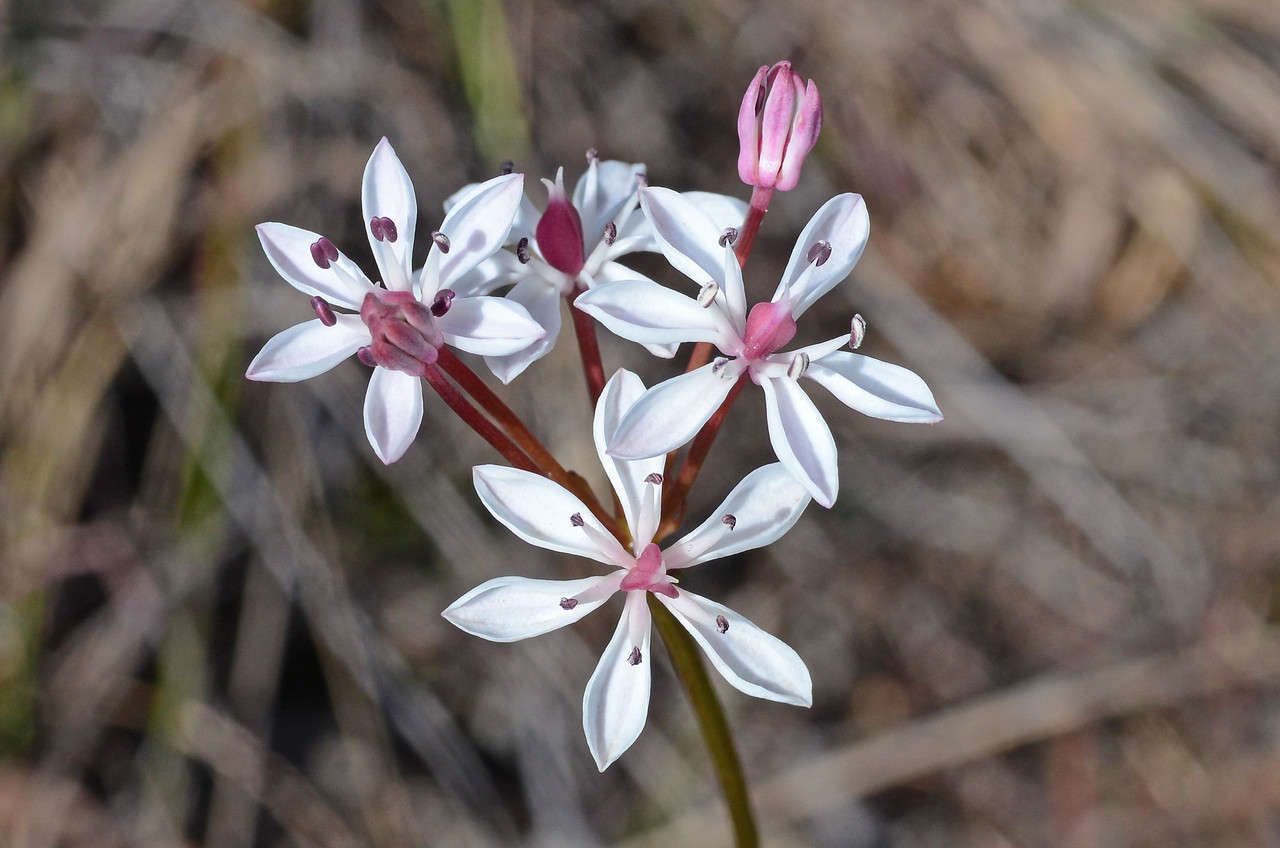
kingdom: Plantae
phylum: Tracheophyta
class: Liliopsida
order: Liliales
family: Colchicaceae
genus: Burchardia
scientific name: Burchardia umbellata
